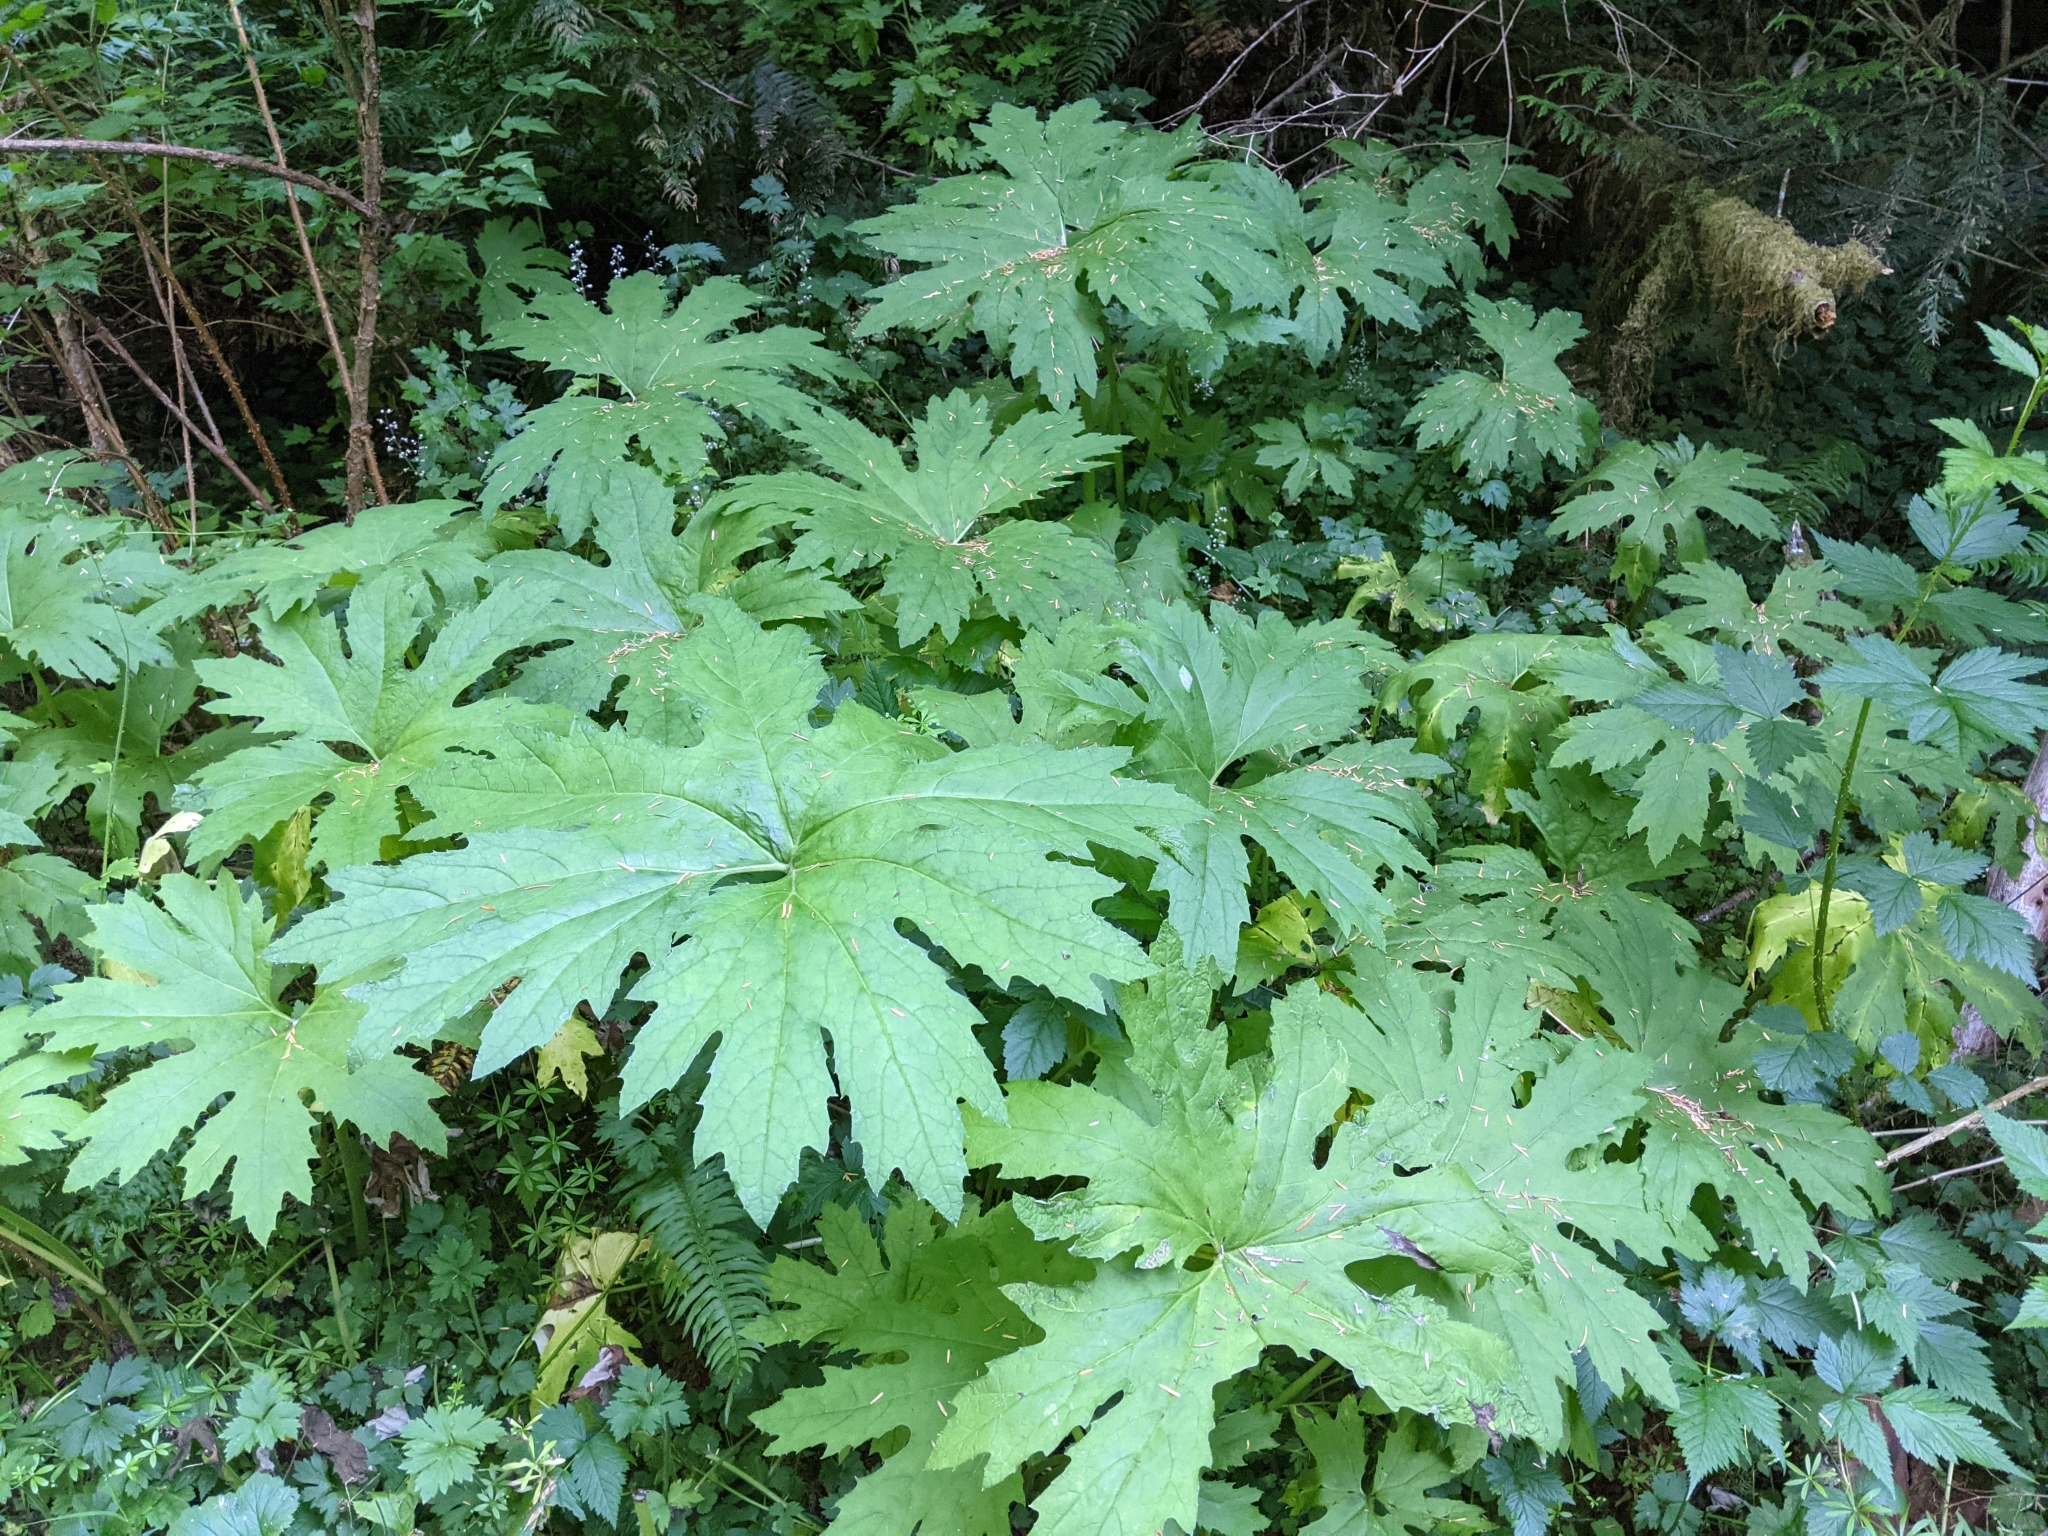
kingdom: Plantae
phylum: Tracheophyta
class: Magnoliopsida
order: Asterales
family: Asteraceae
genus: Petasites
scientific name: Petasites frigidus
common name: Arctic butterbur
